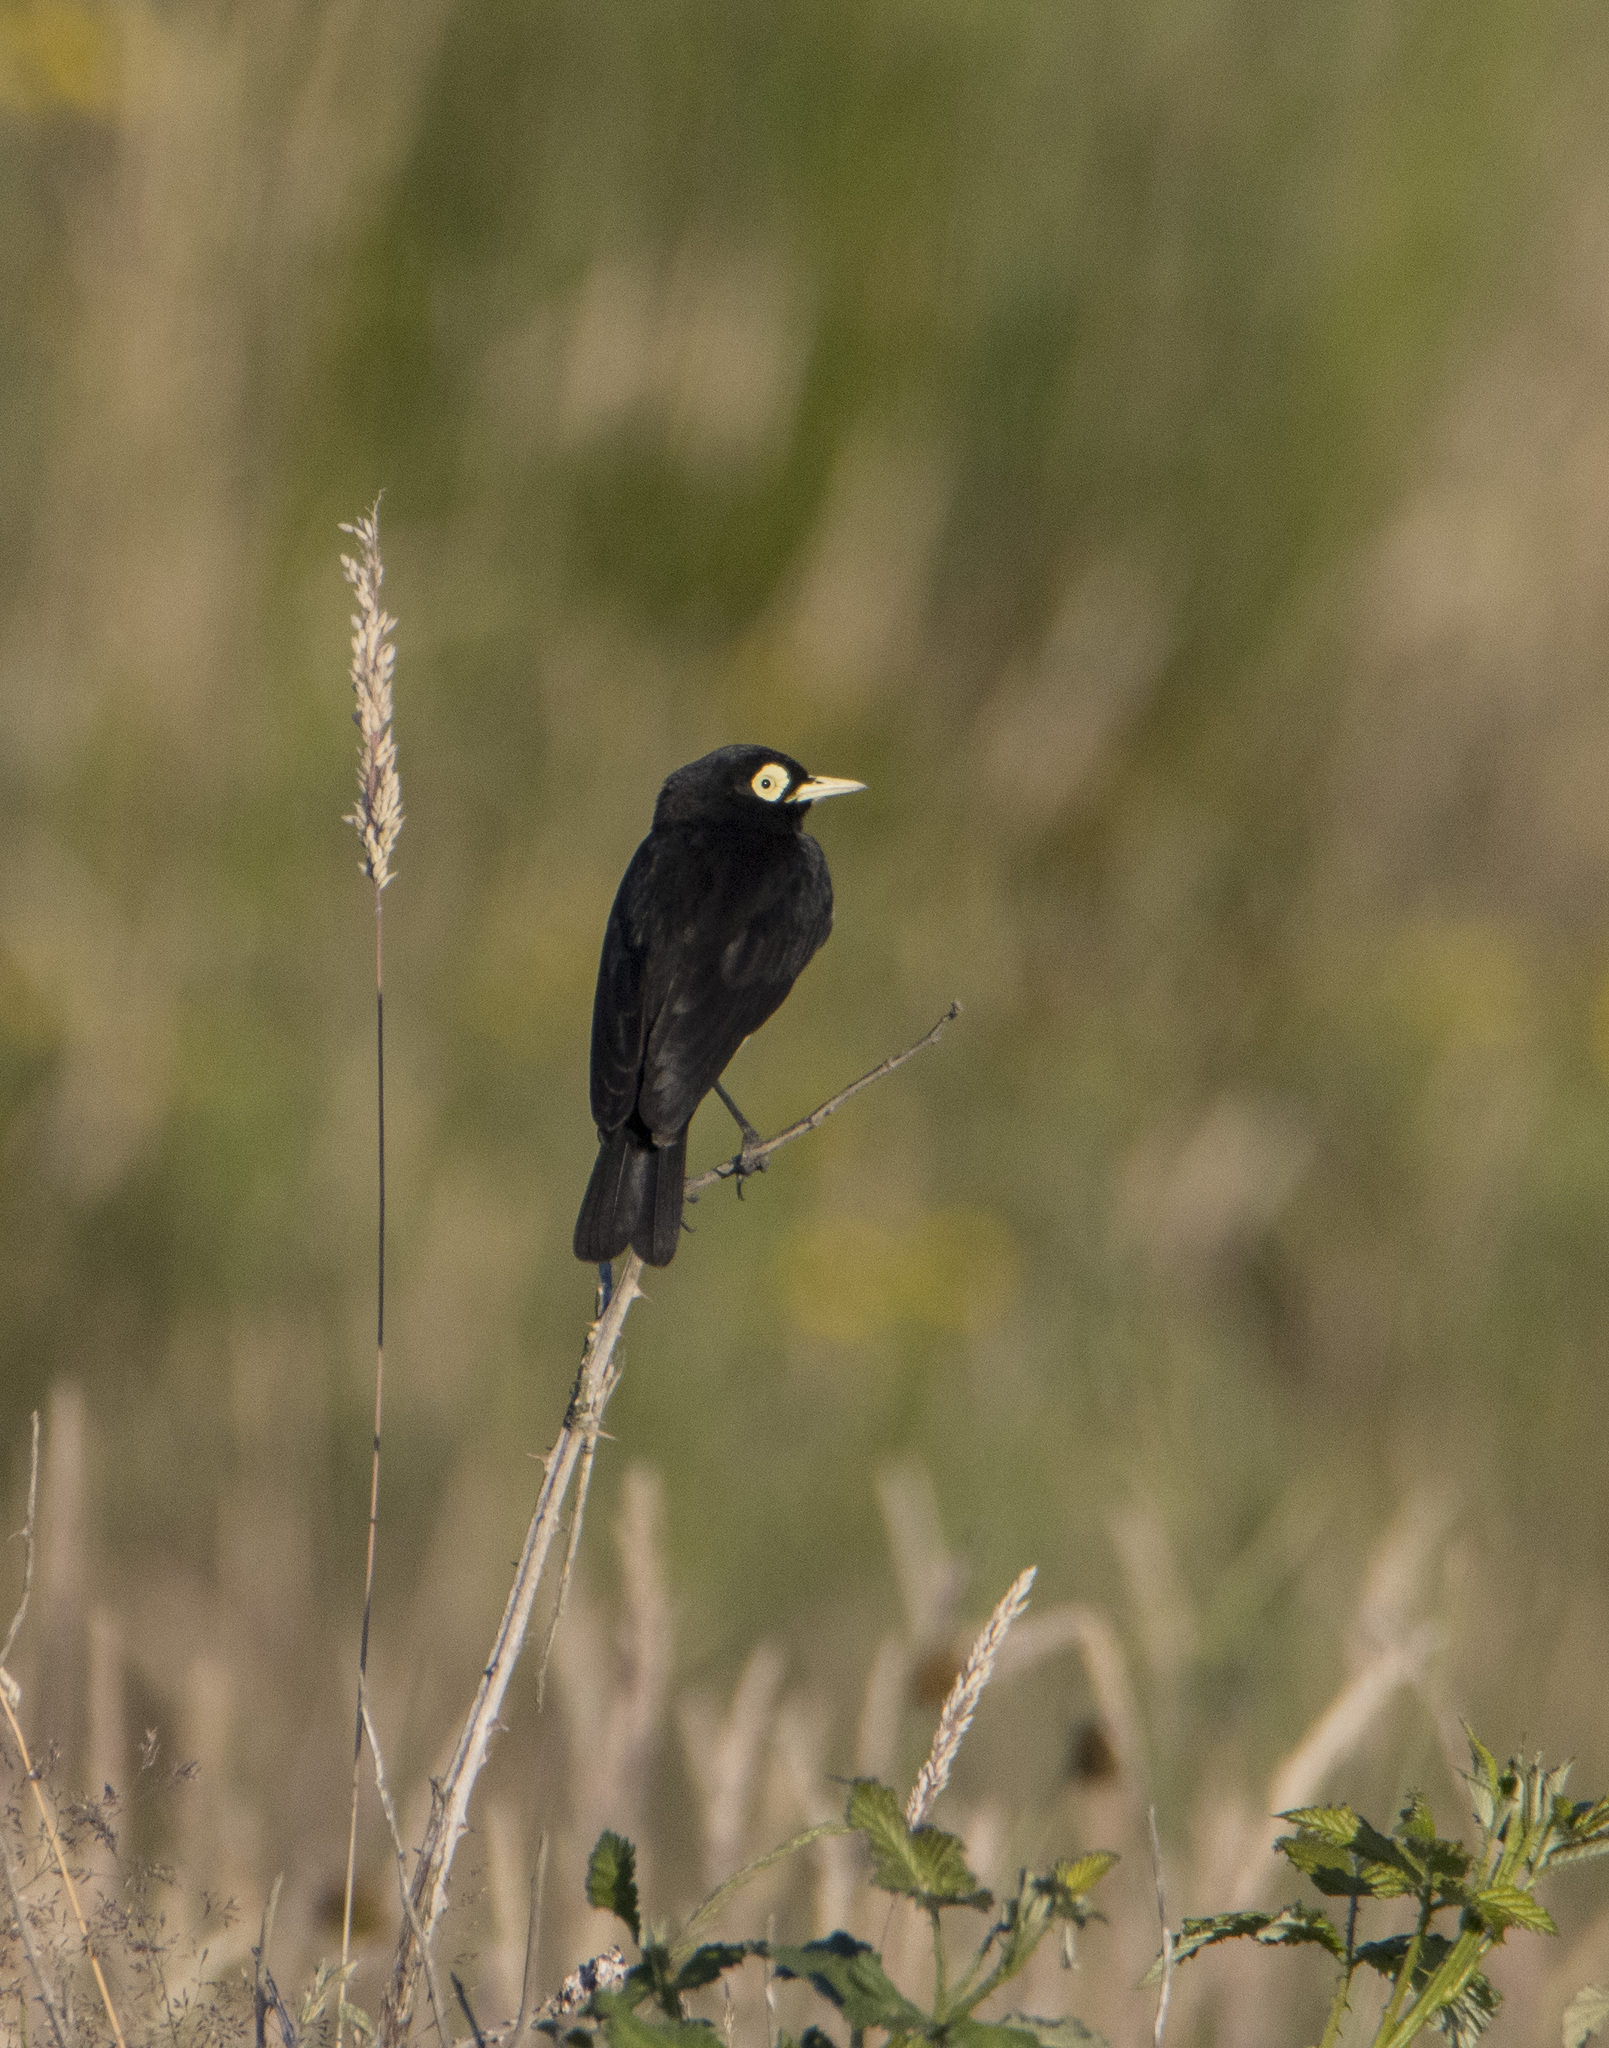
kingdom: Animalia
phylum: Chordata
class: Aves
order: Passeriformes
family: Tyrannidae
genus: Hymenops
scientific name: Hymenops perspicillatus
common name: Spectacled tyrant
